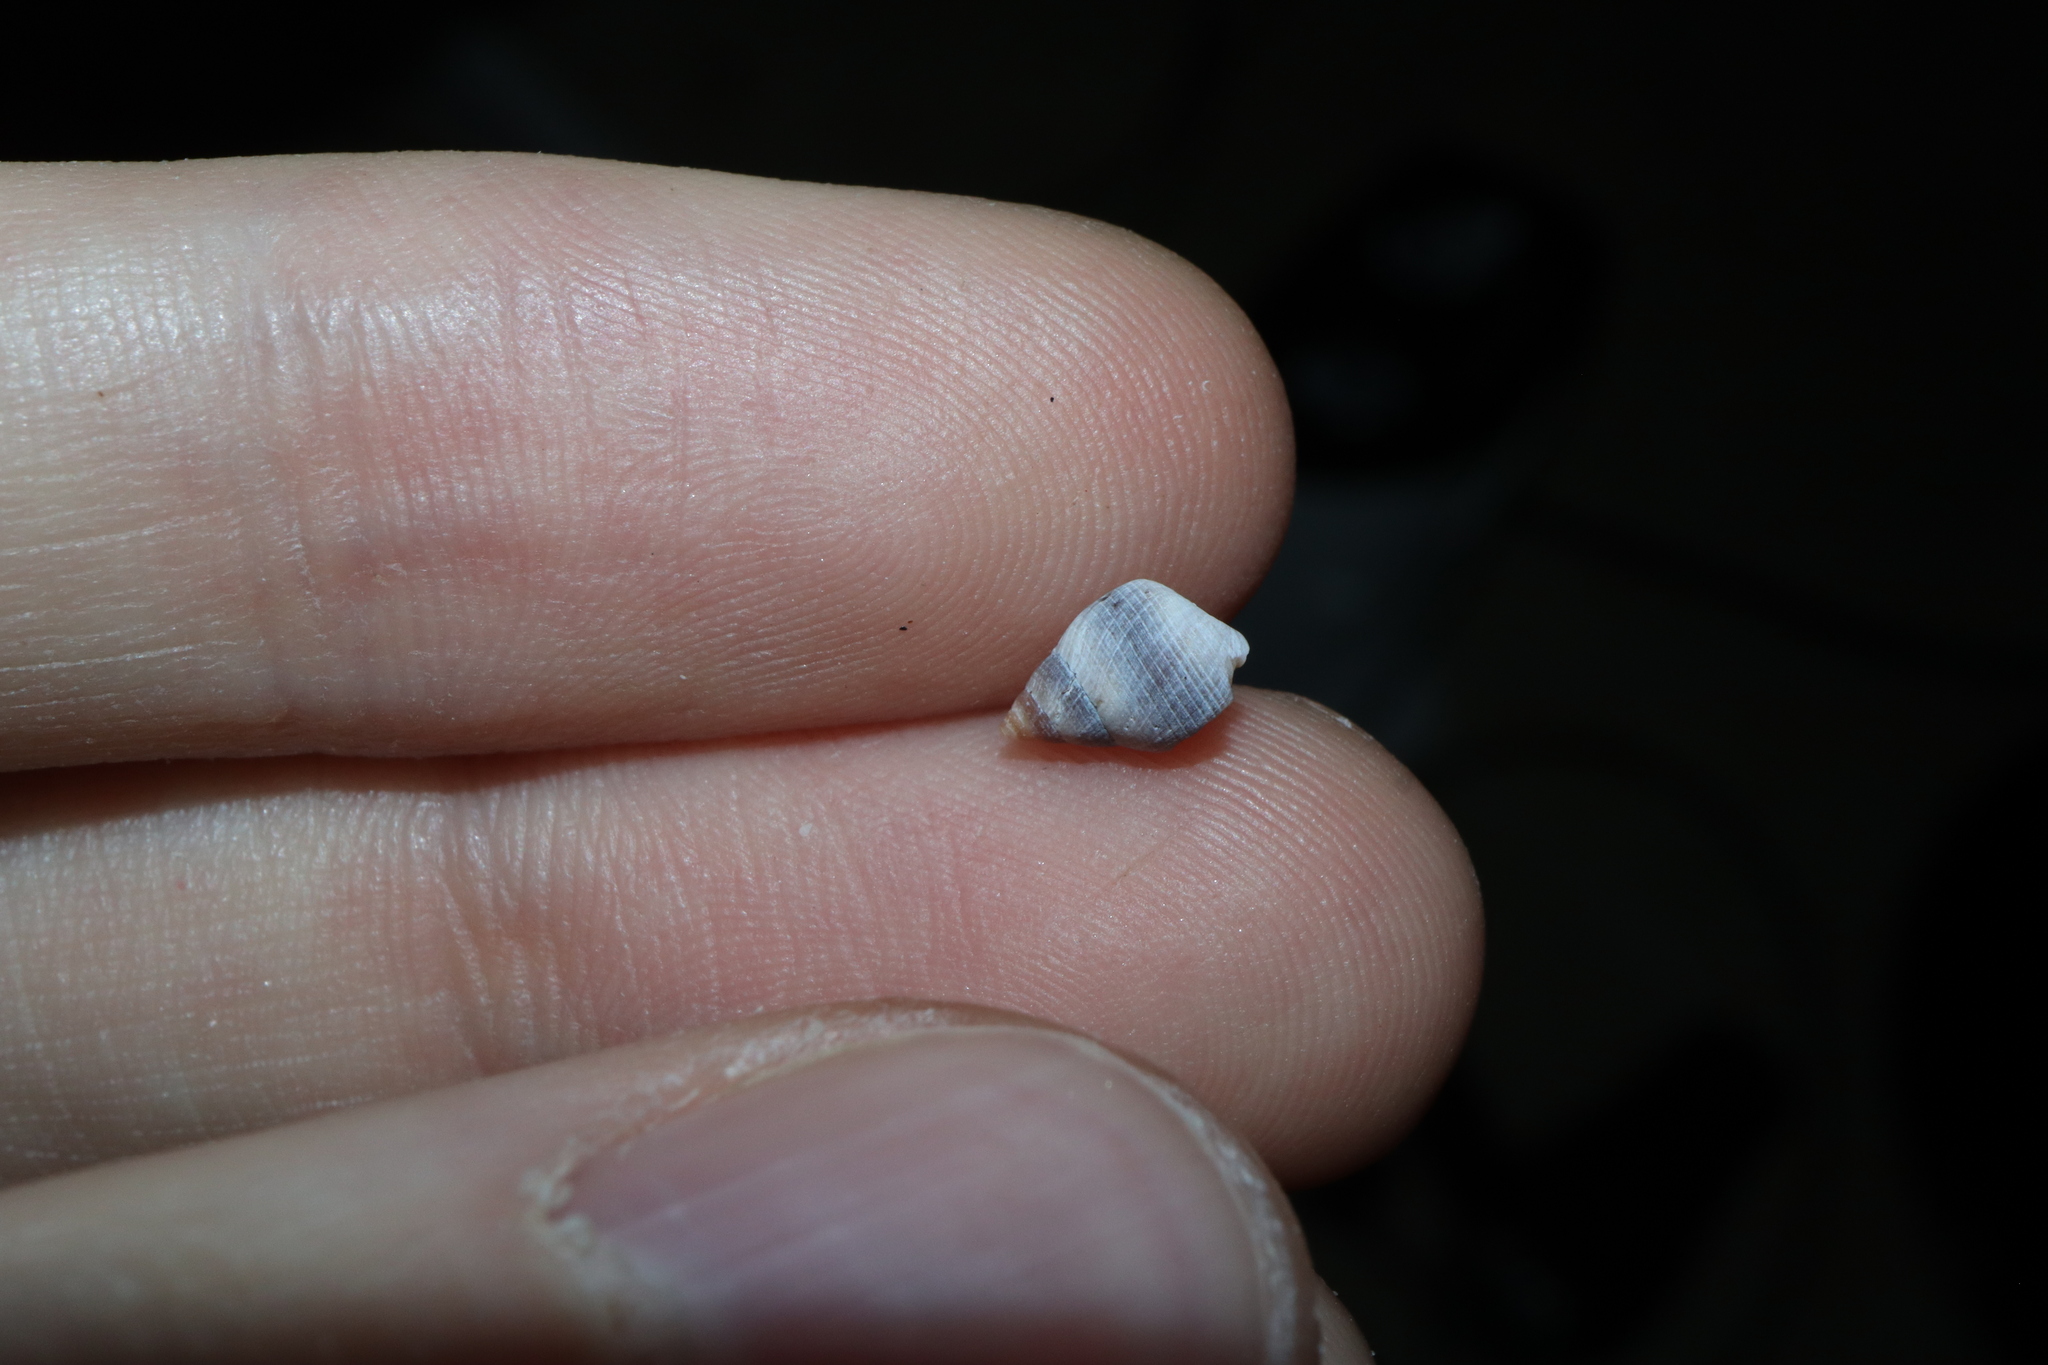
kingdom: Animalia
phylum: Mollusca
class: Gastropoda
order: Littorinimorpha
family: Littorinidae
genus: Austrolittorina
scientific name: Austrolittorina unifasciata
